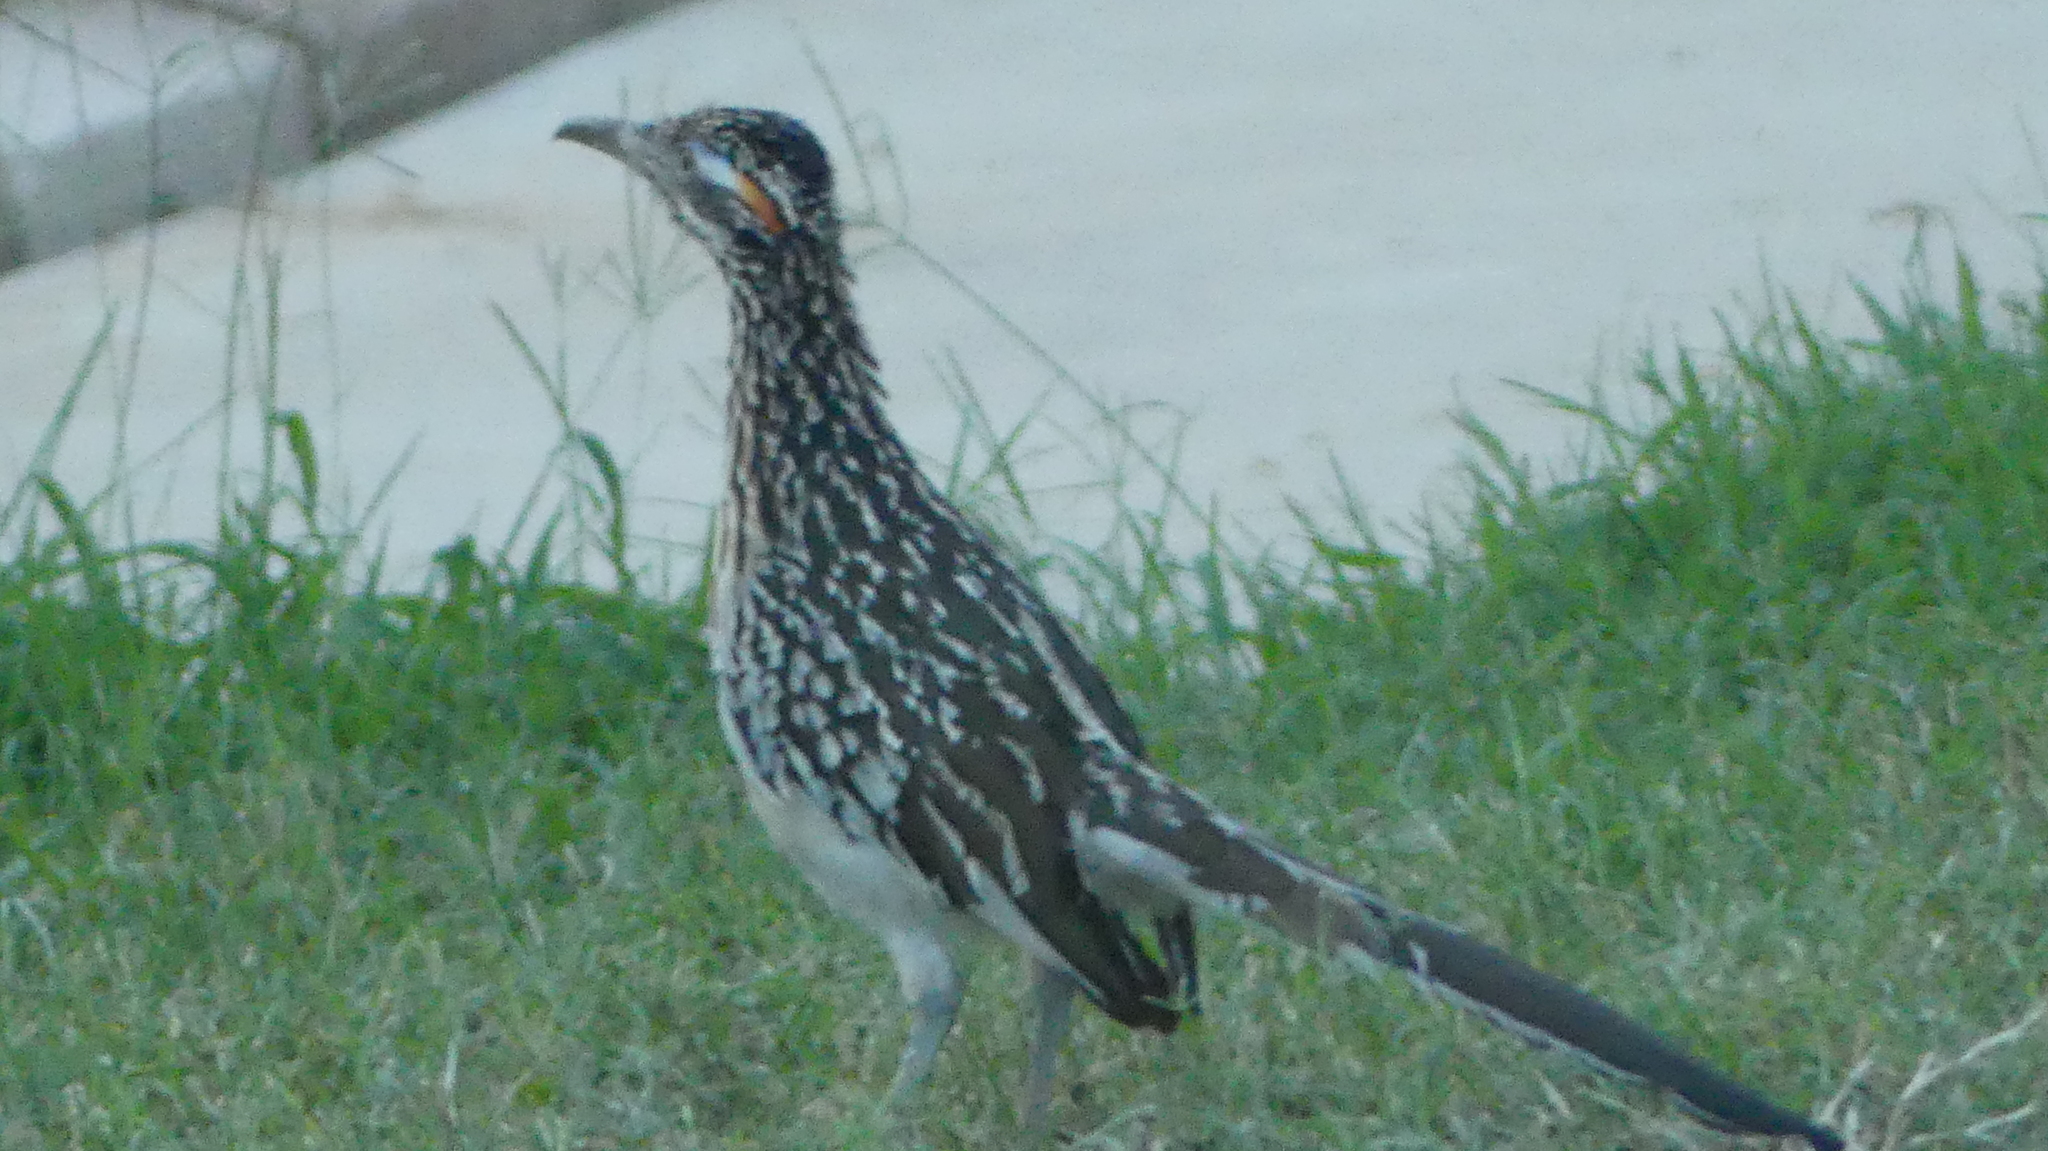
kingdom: Animalia
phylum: Chordata
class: Aves
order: Cuculiformes
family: Cuculidae
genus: Geococcyx
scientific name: Geococcyx californianus
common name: Greater roadrunner
